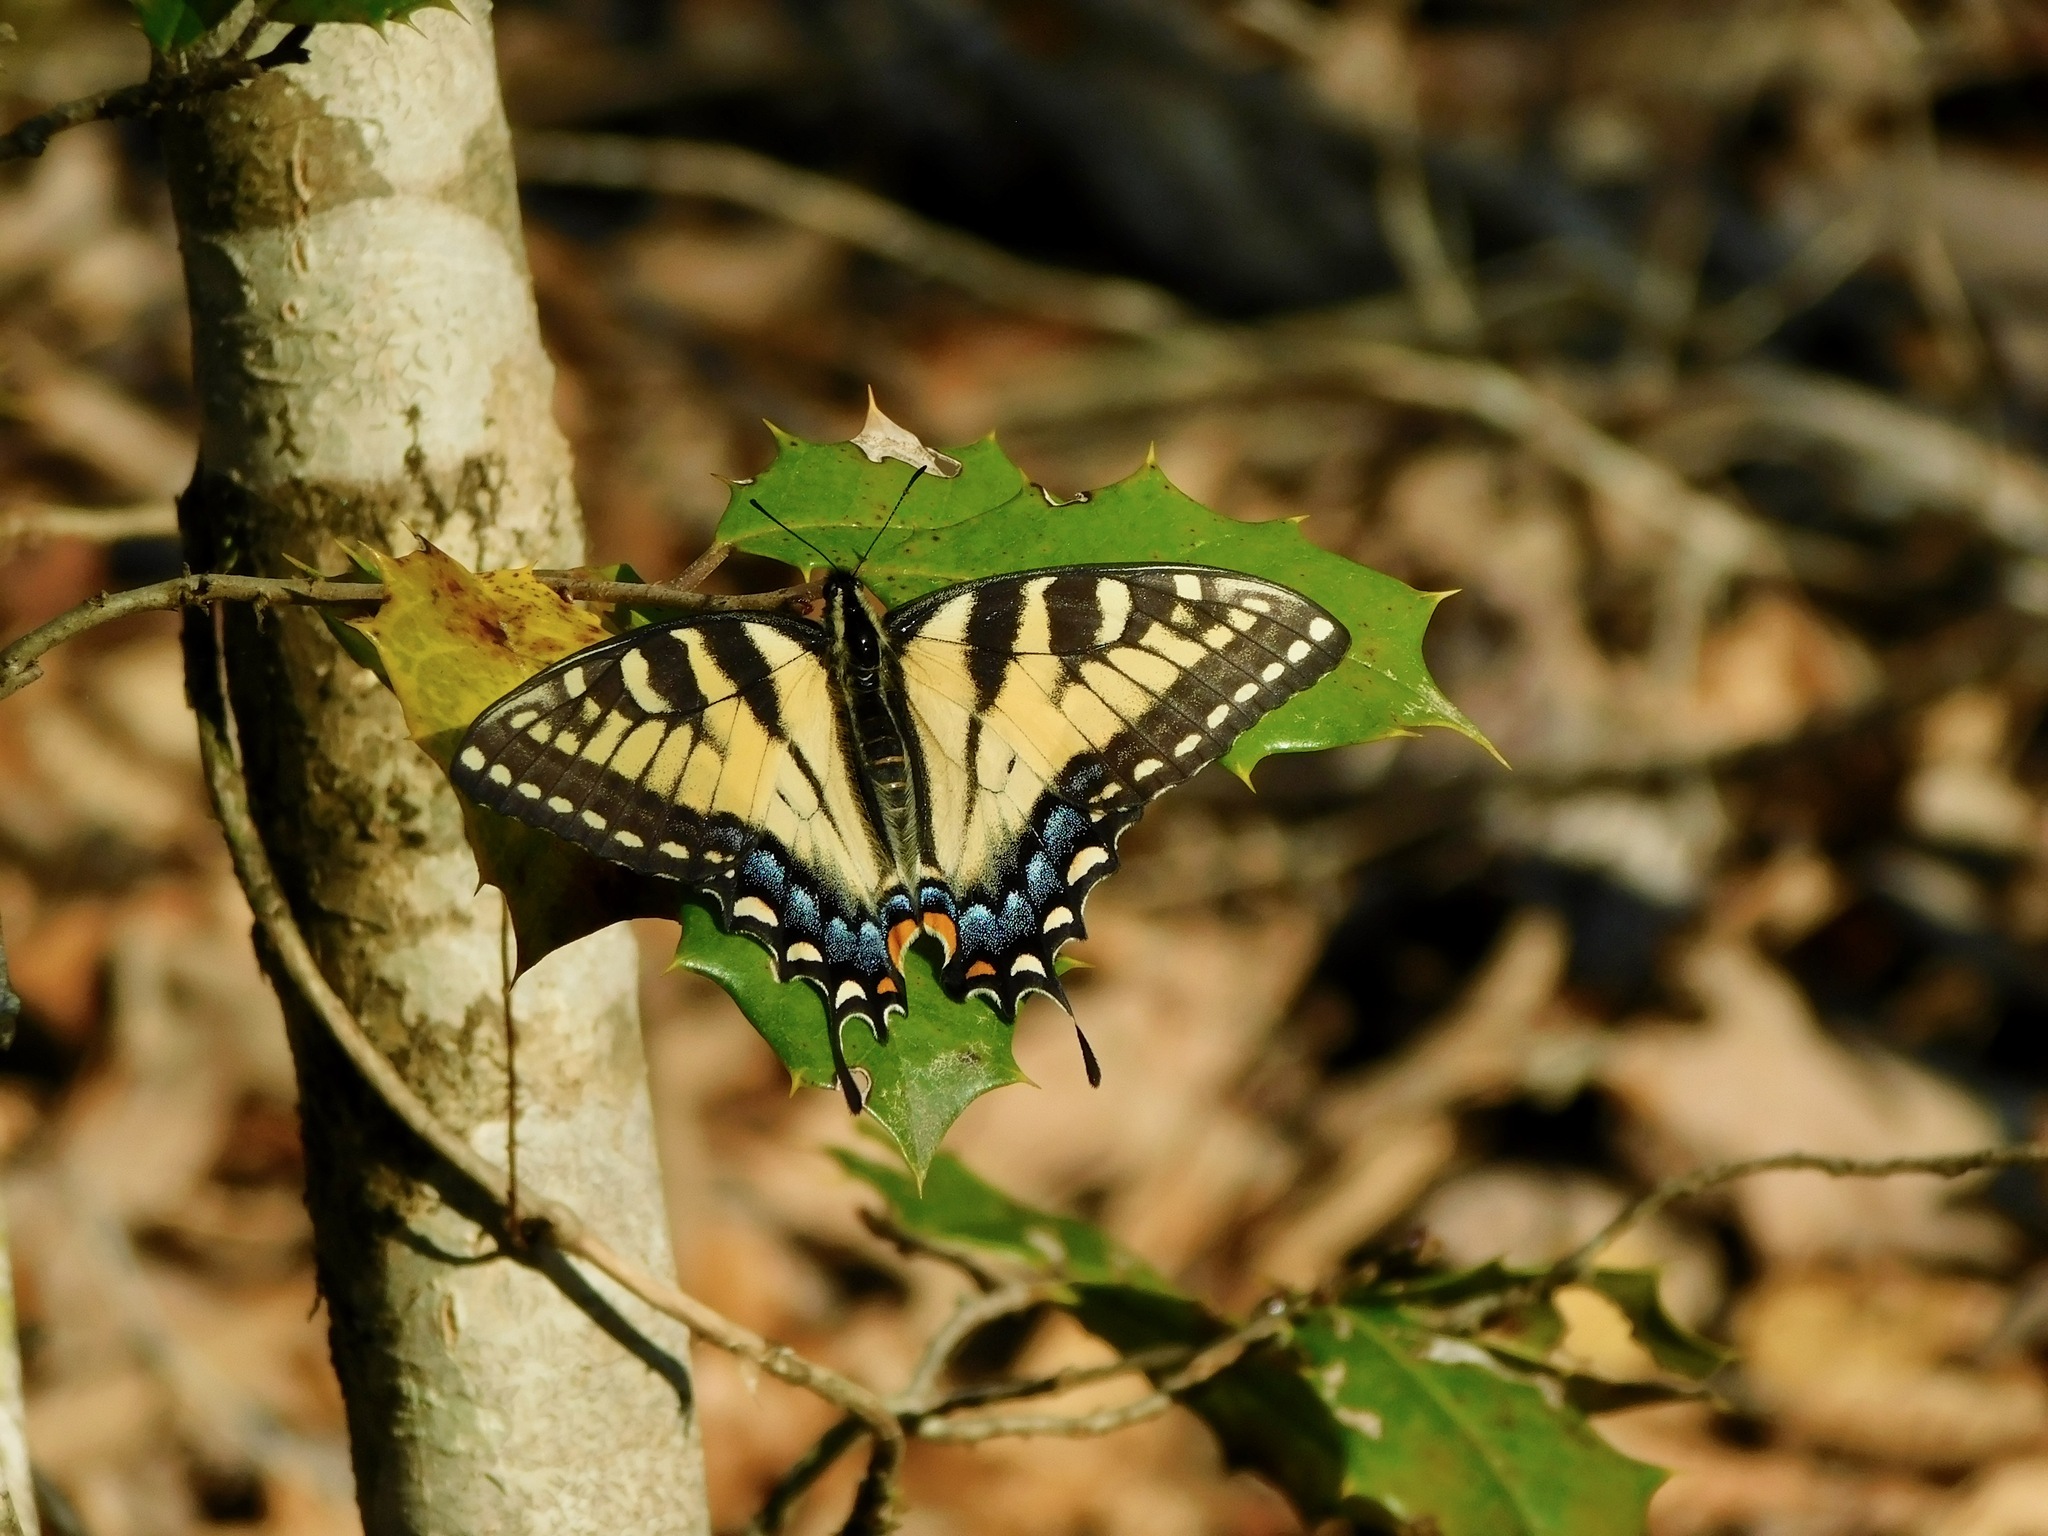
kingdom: Animalia
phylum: Arthropoda
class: Insecta
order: Lepidoptera
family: Papilionidae
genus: Papilio
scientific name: Papilio glaucus
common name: Tiger swallowtail
